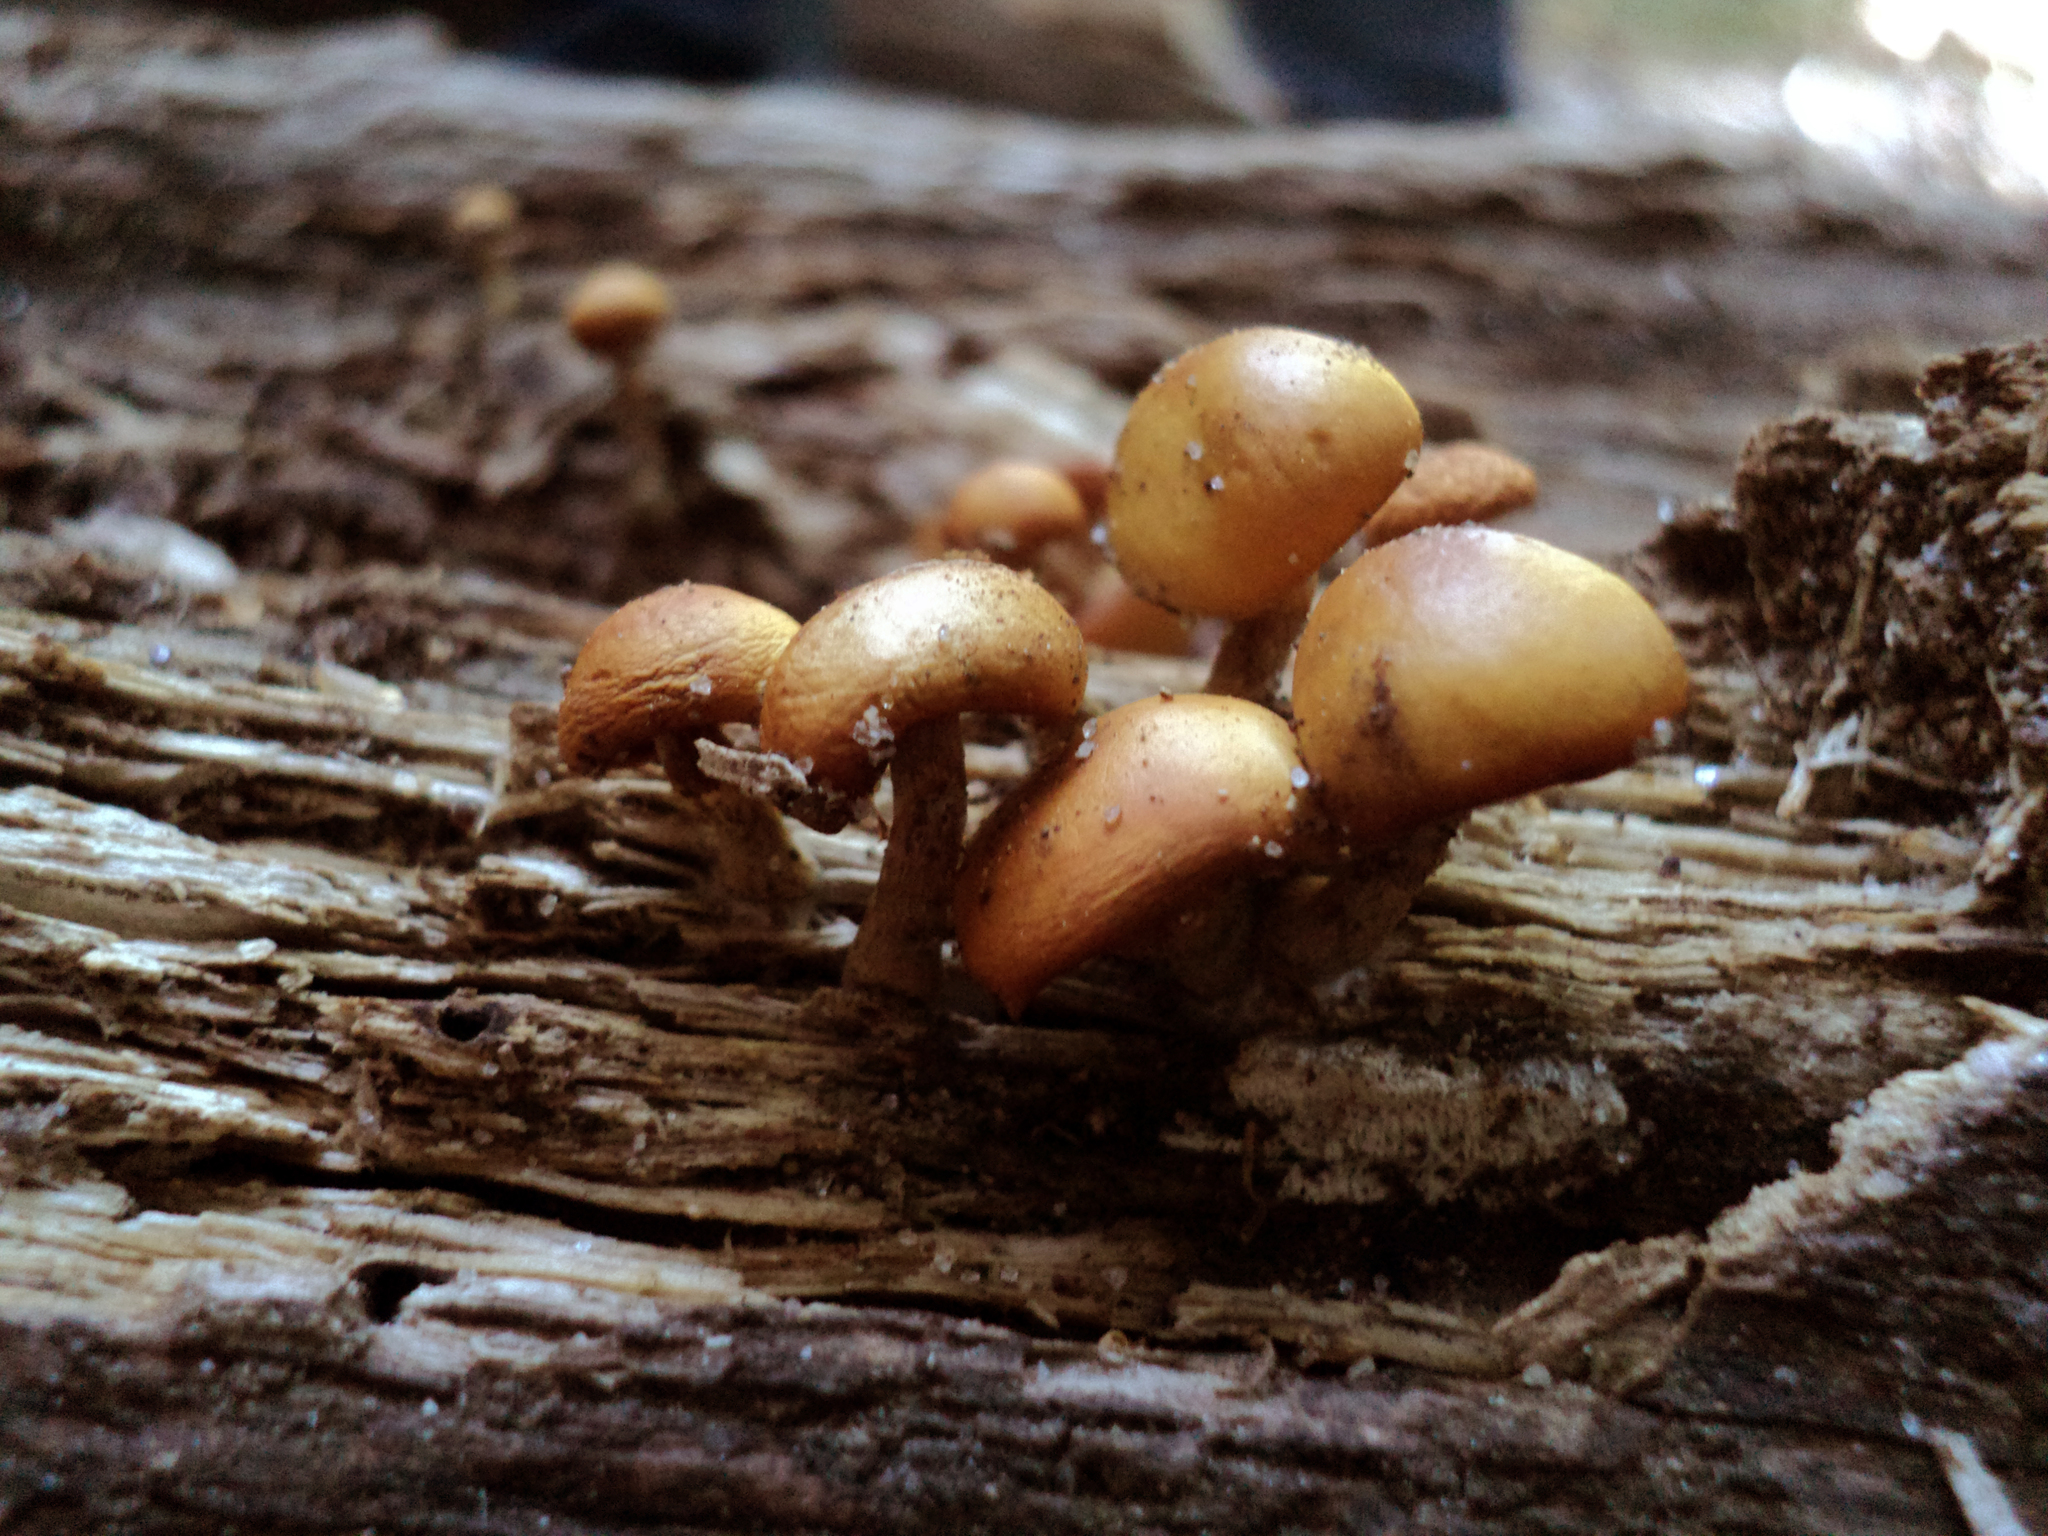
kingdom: Fungi
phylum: Basidiomycota
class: Agaricomycetes
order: Agaricales
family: Hymenogastraceae
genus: Galerina
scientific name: Galerina marginata
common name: Funeral bell
